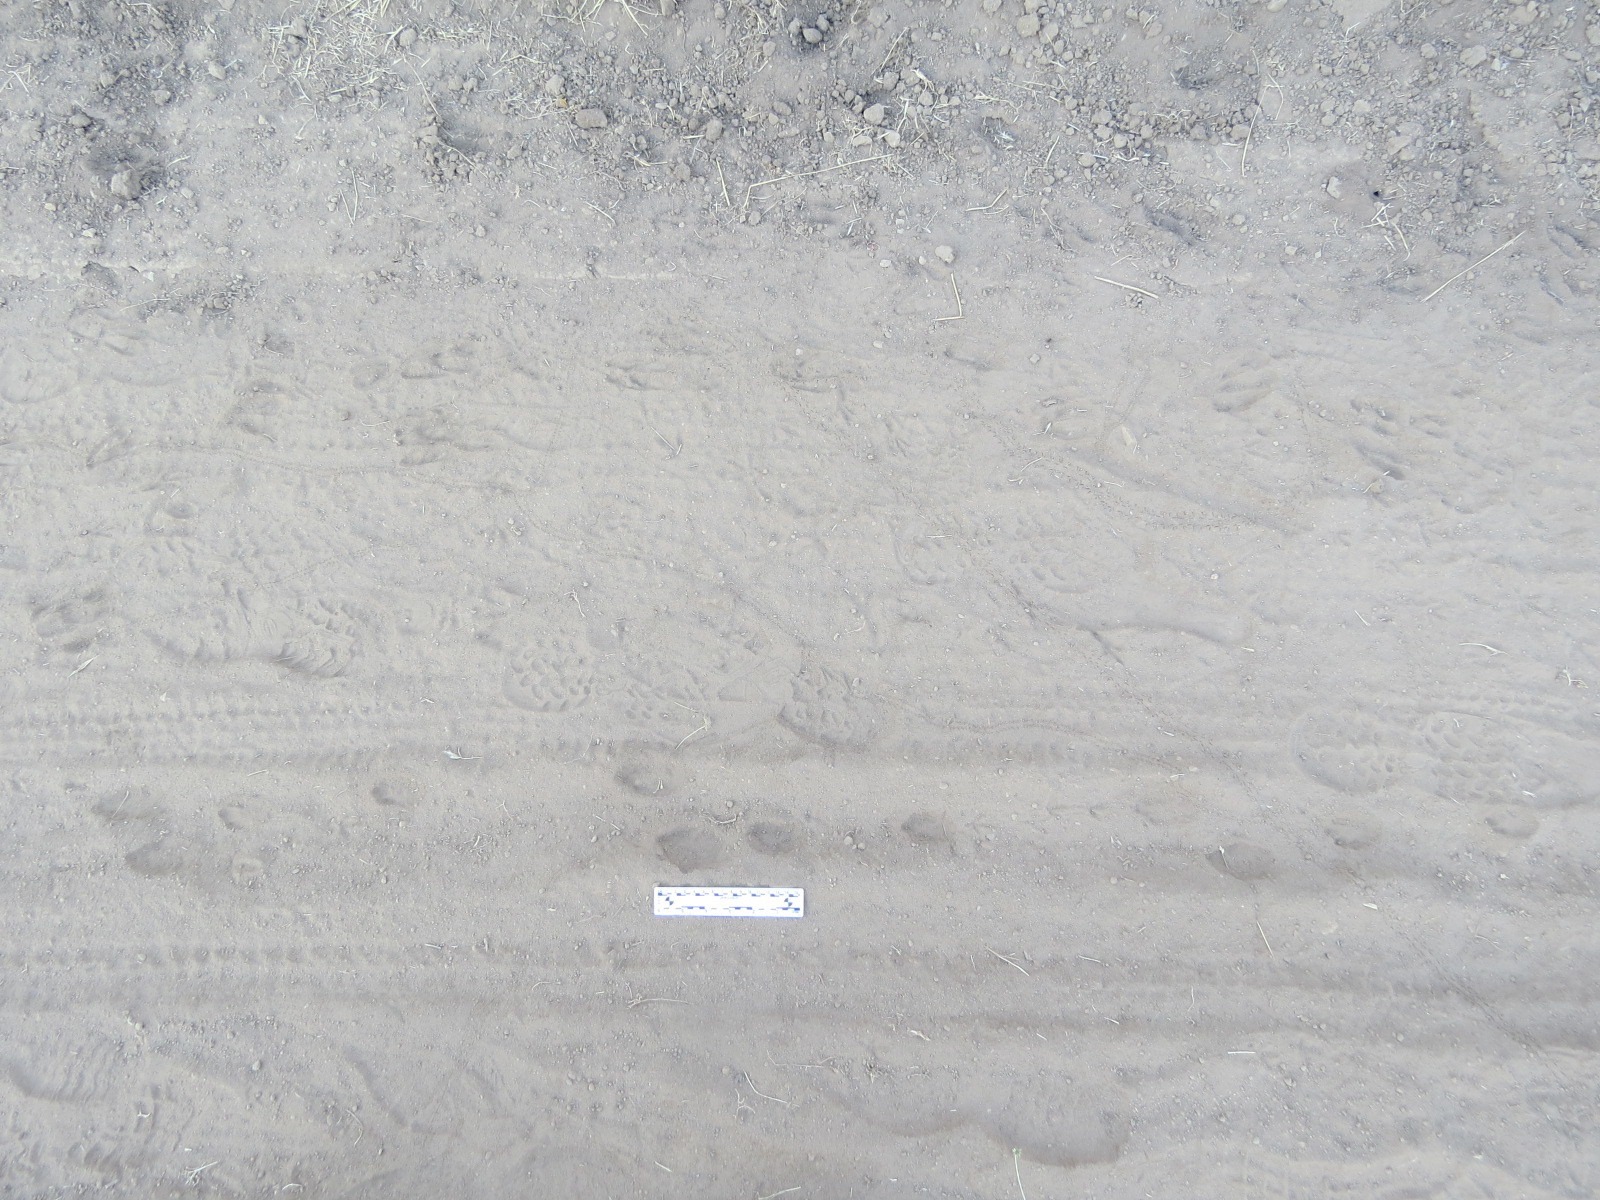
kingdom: Animalia
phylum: Chordata
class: Mammalia
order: Lagomorpha
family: Leporidae
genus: Lepus
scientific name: Lepus californicus
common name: Black-tailed jackrabbit
